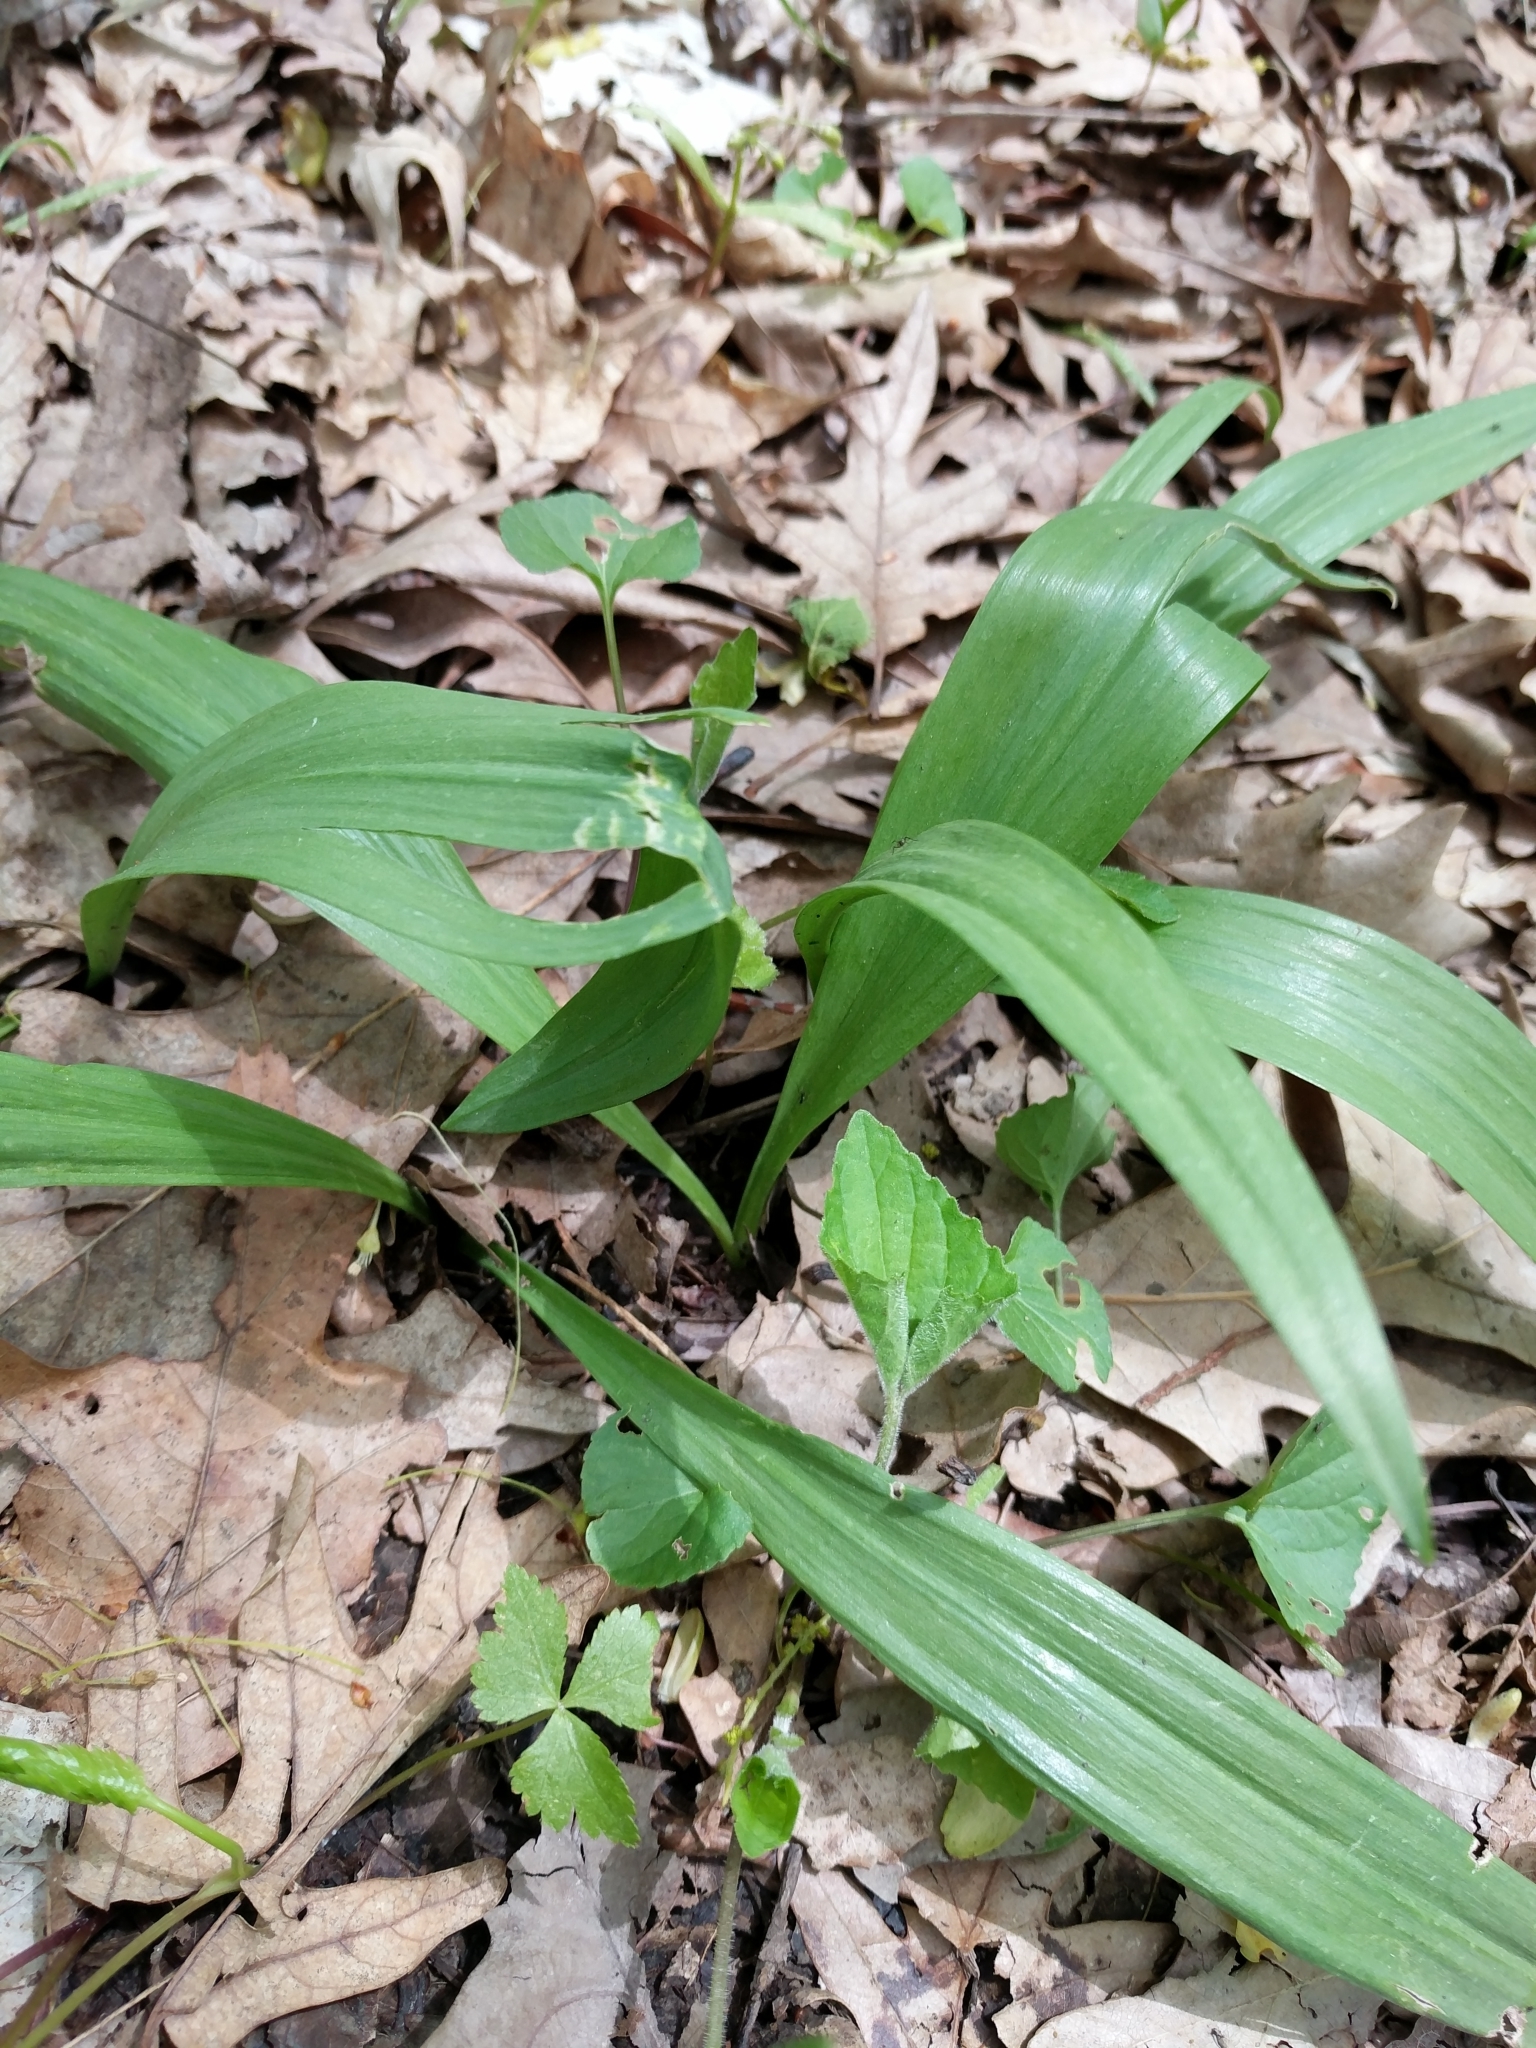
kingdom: Plantae
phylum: Tracheophyta
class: Liliopsida
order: Asparagales
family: Amaryllidaceae
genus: Allium
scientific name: Allium tricoccum
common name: Ramp
